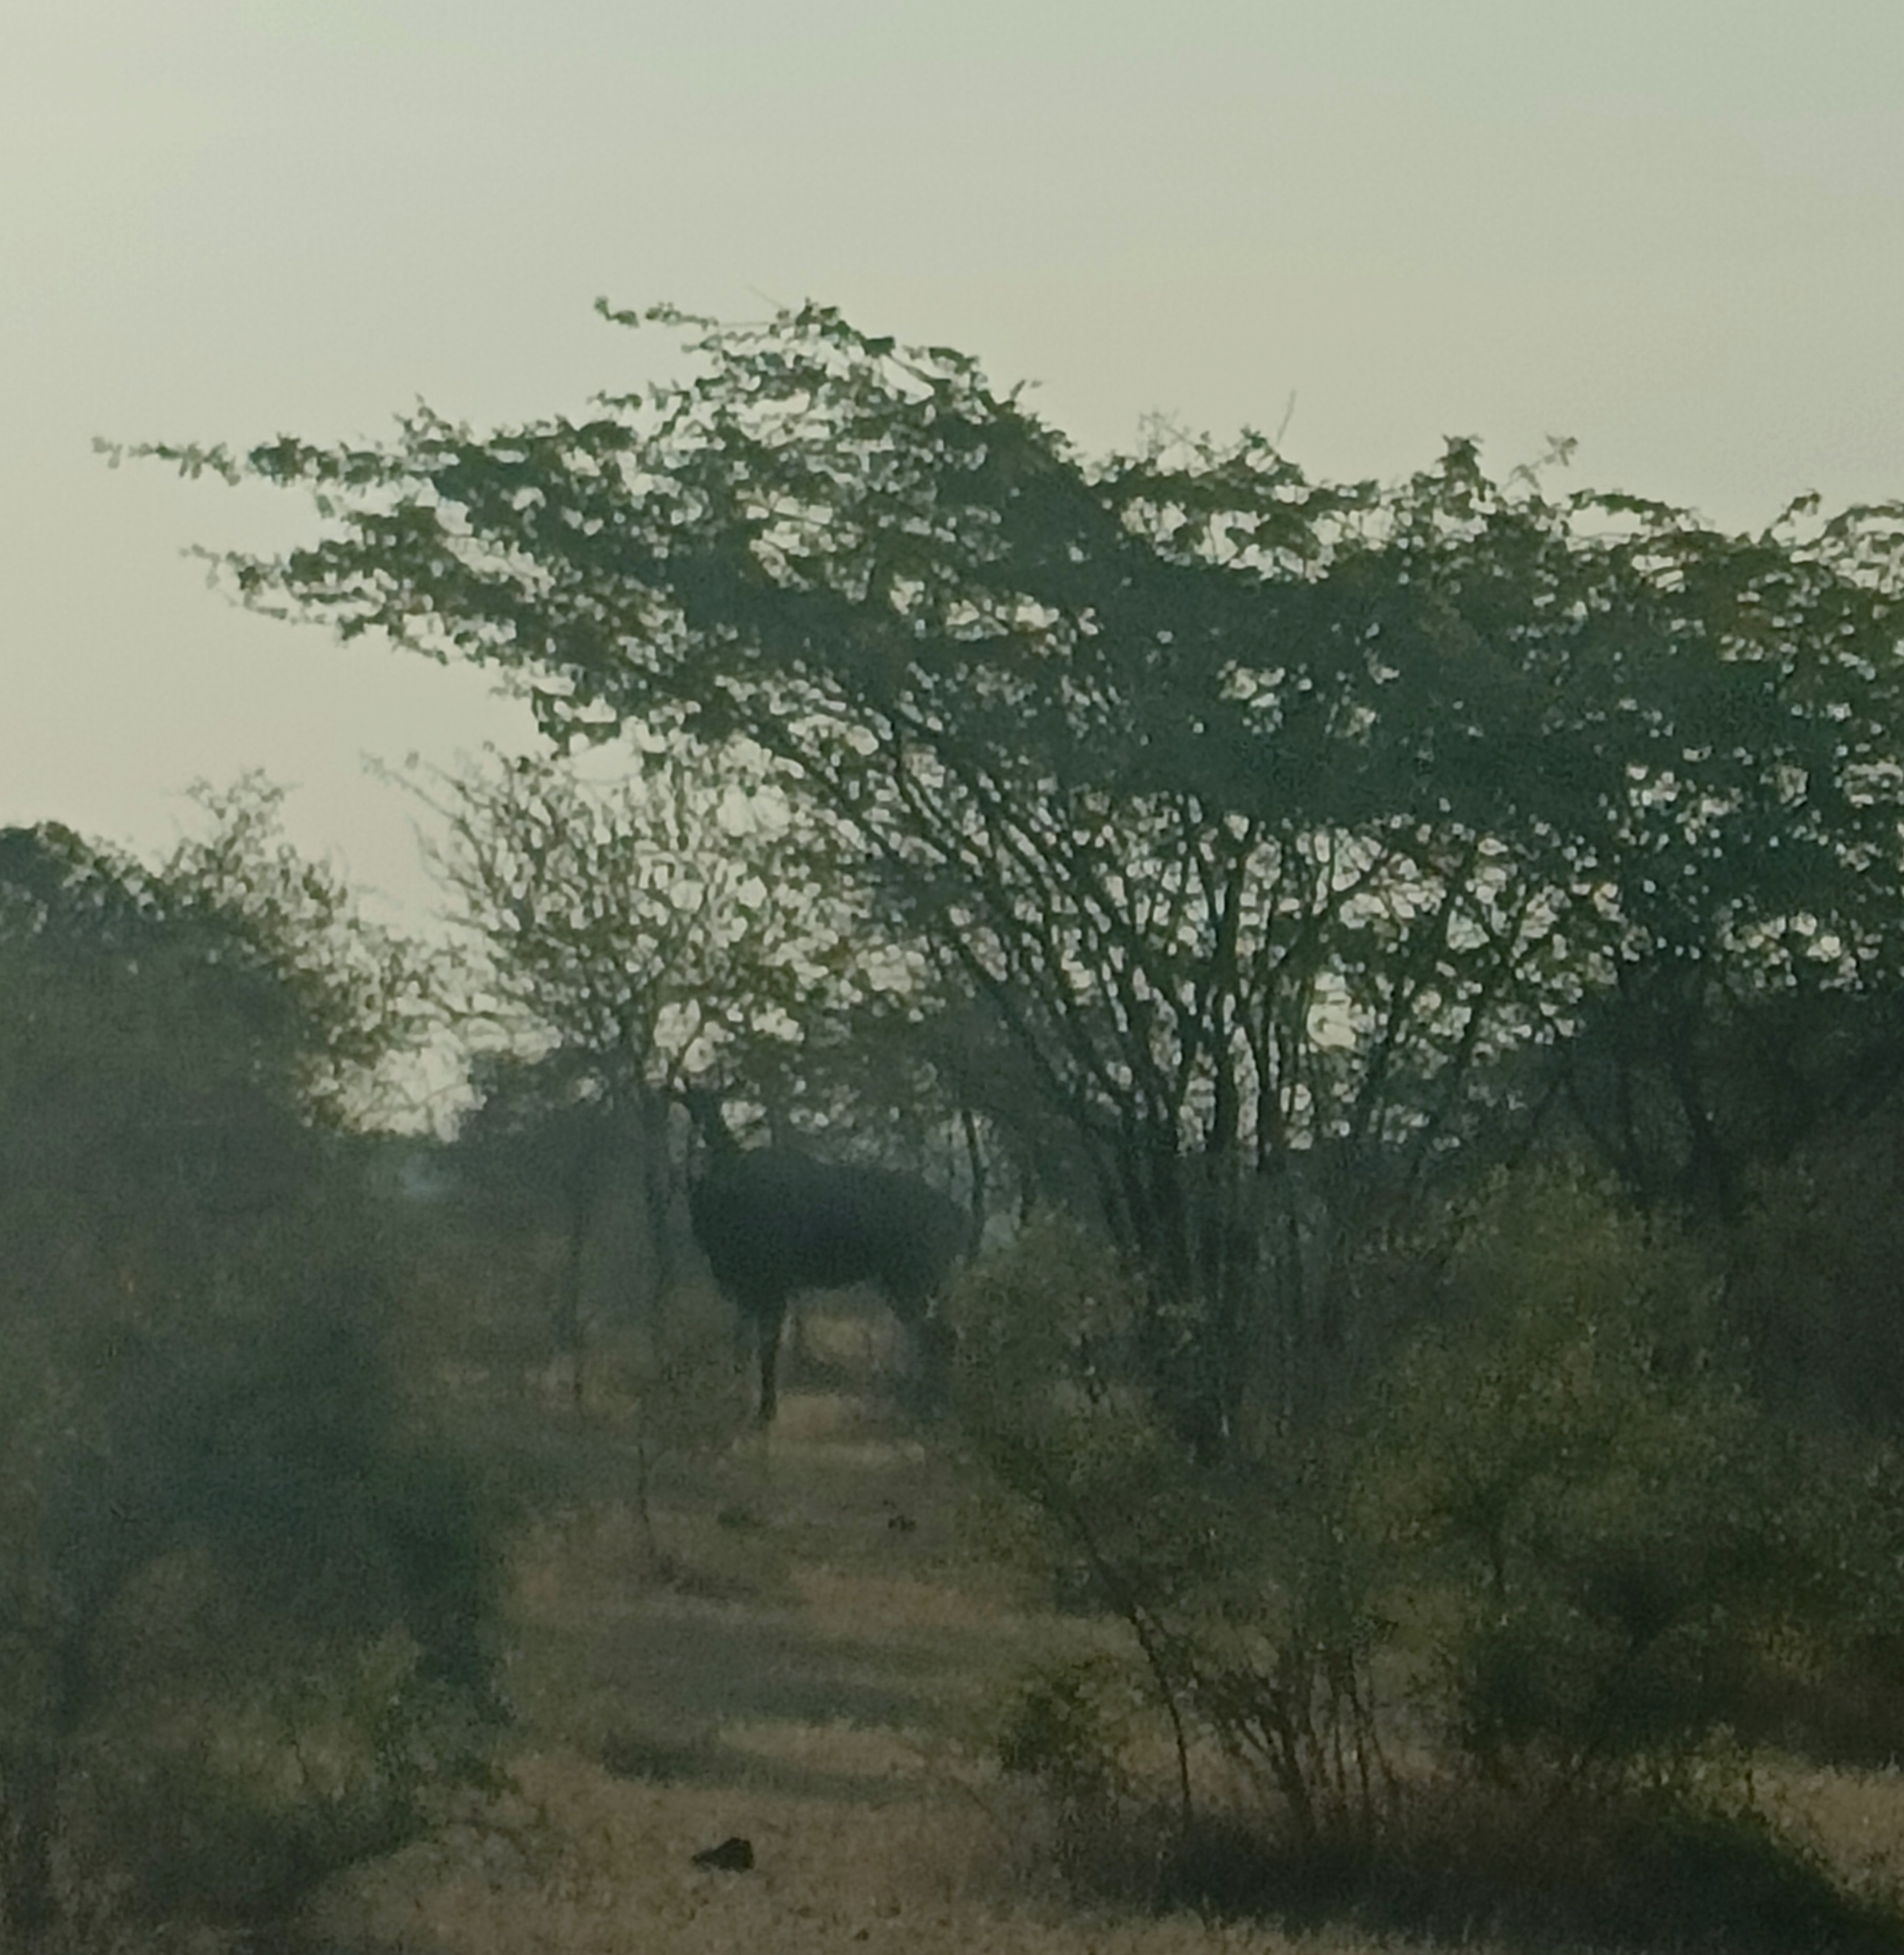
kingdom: Animalia
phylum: Chordata
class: Mammalia
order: Artiodactyla
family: Bovidae
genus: Boselaphus
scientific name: Boselaphus tragocamelus
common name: Nilgai
